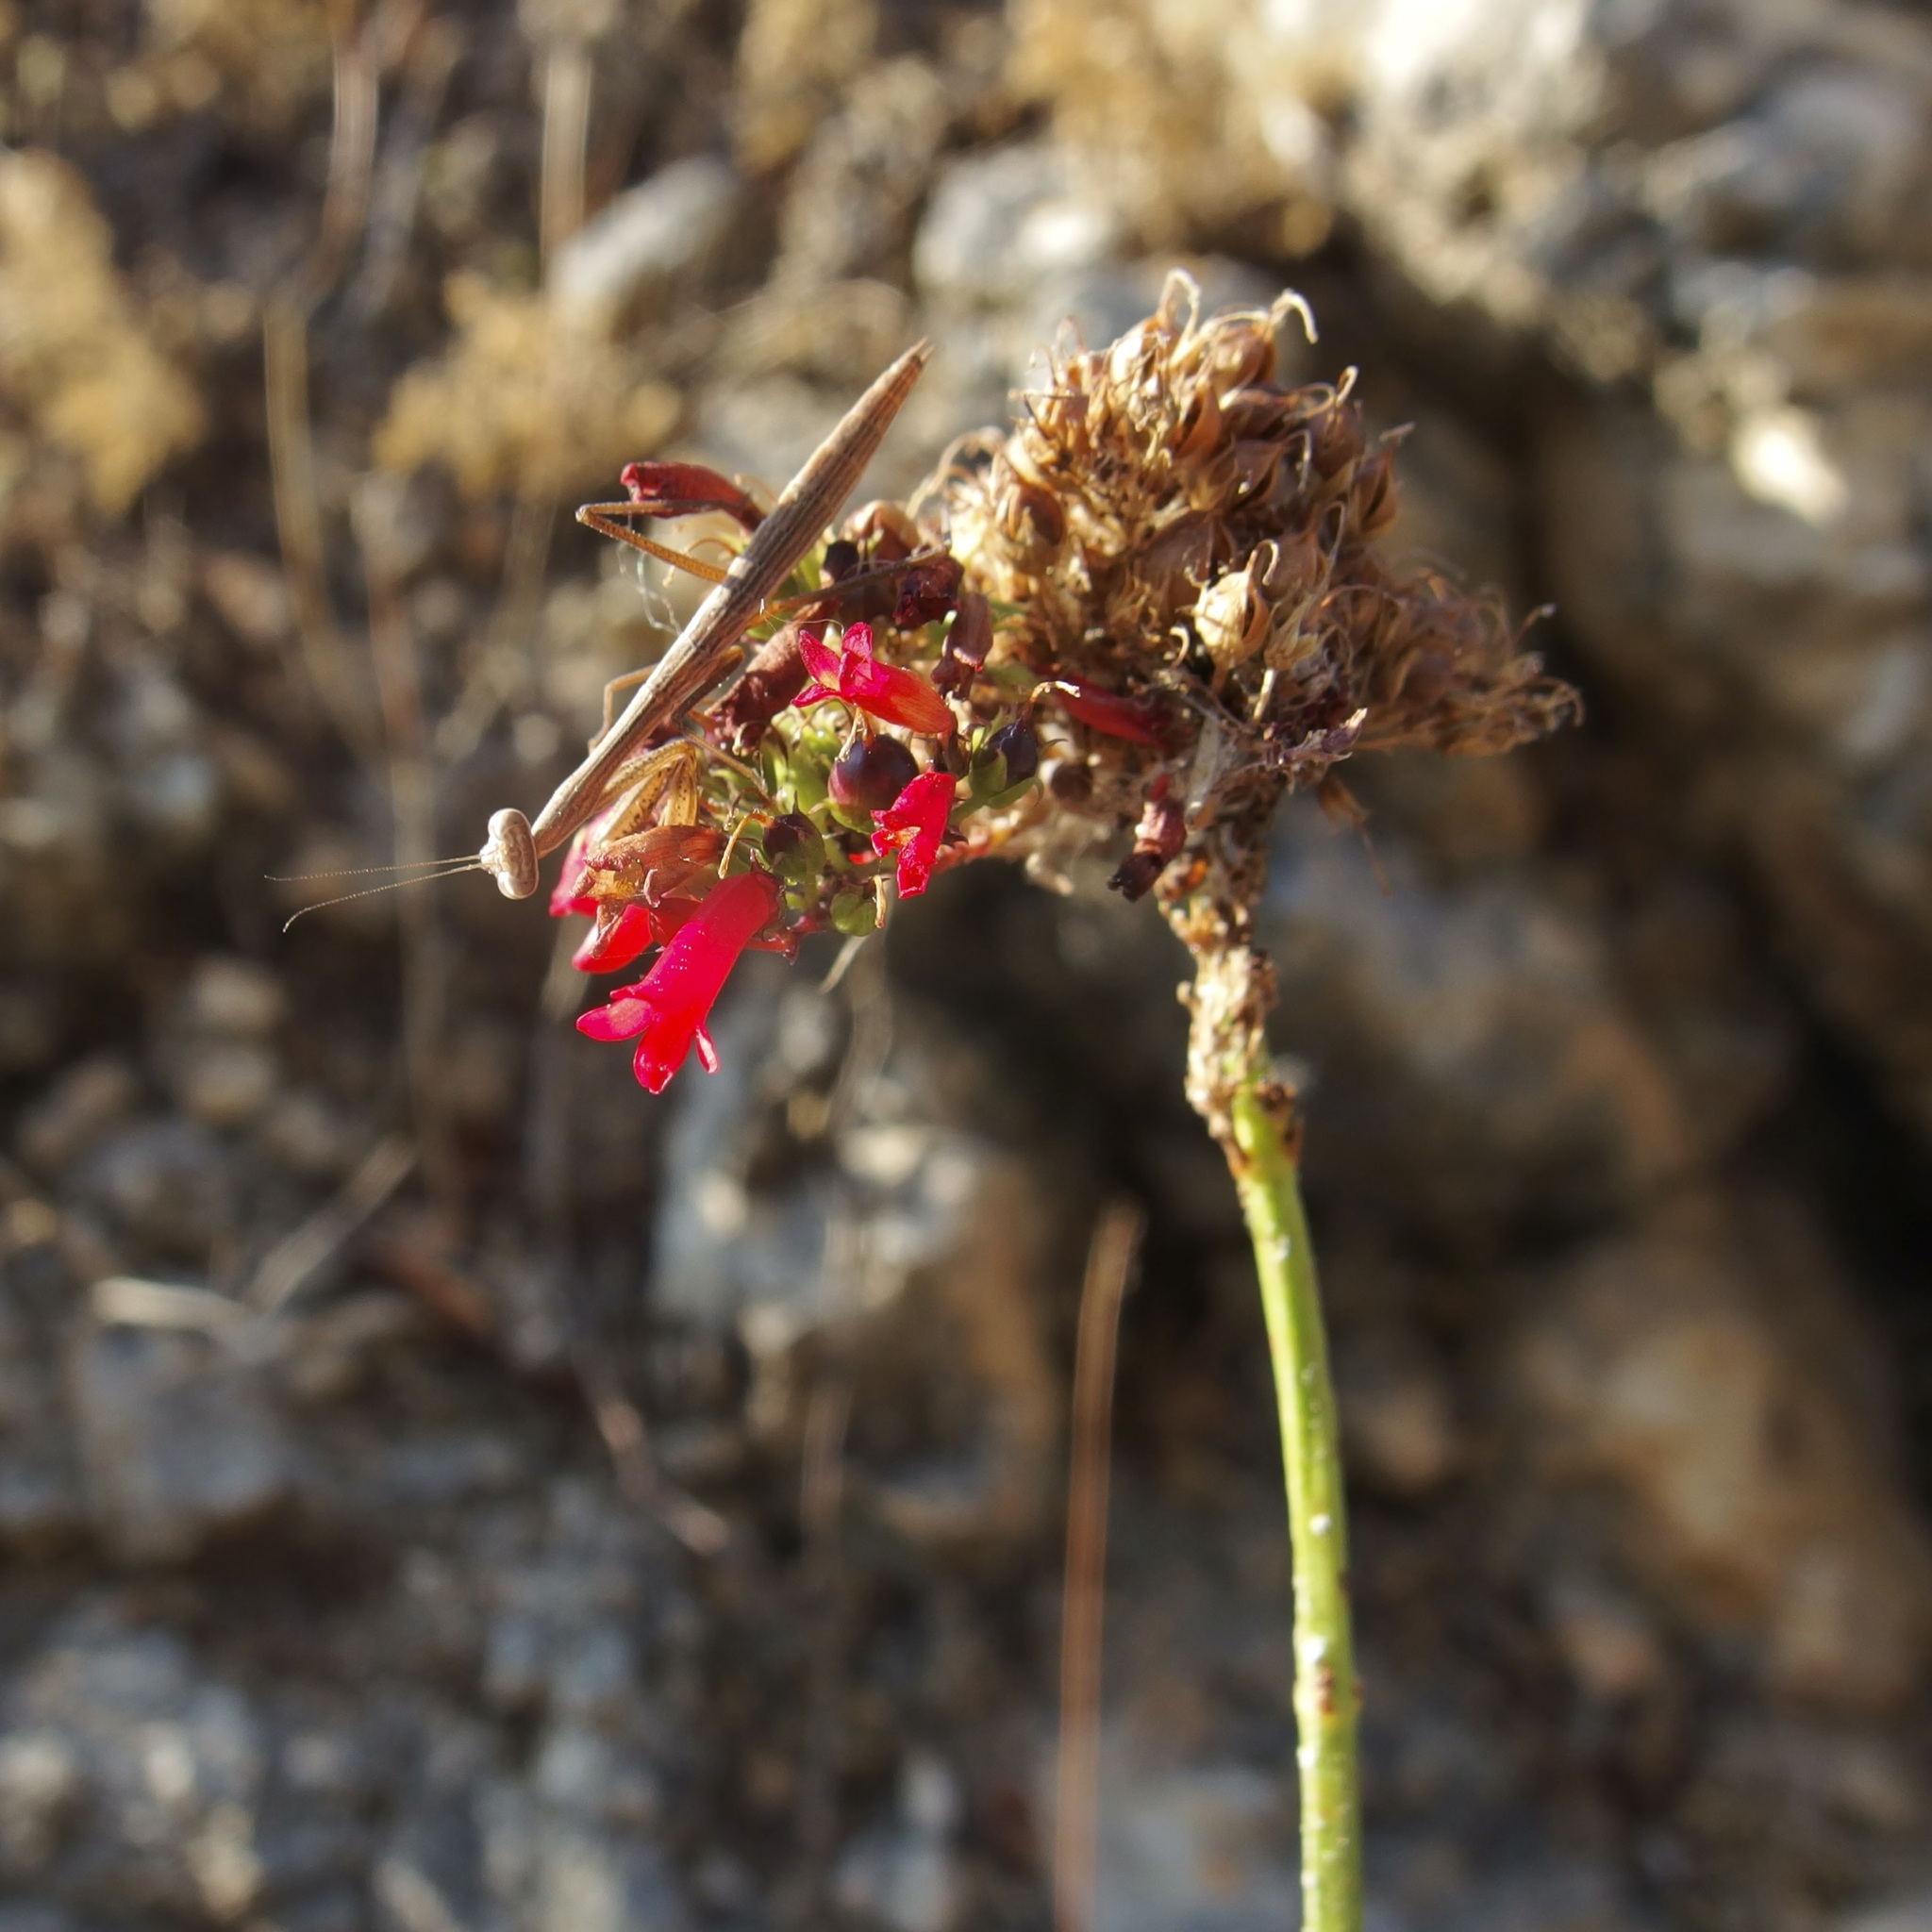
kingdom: Plantae
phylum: Tracheophyta
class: Magnoliopsida
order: Lamiales
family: Plantaginaceae
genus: Russelia
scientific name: Russelia verticillata
